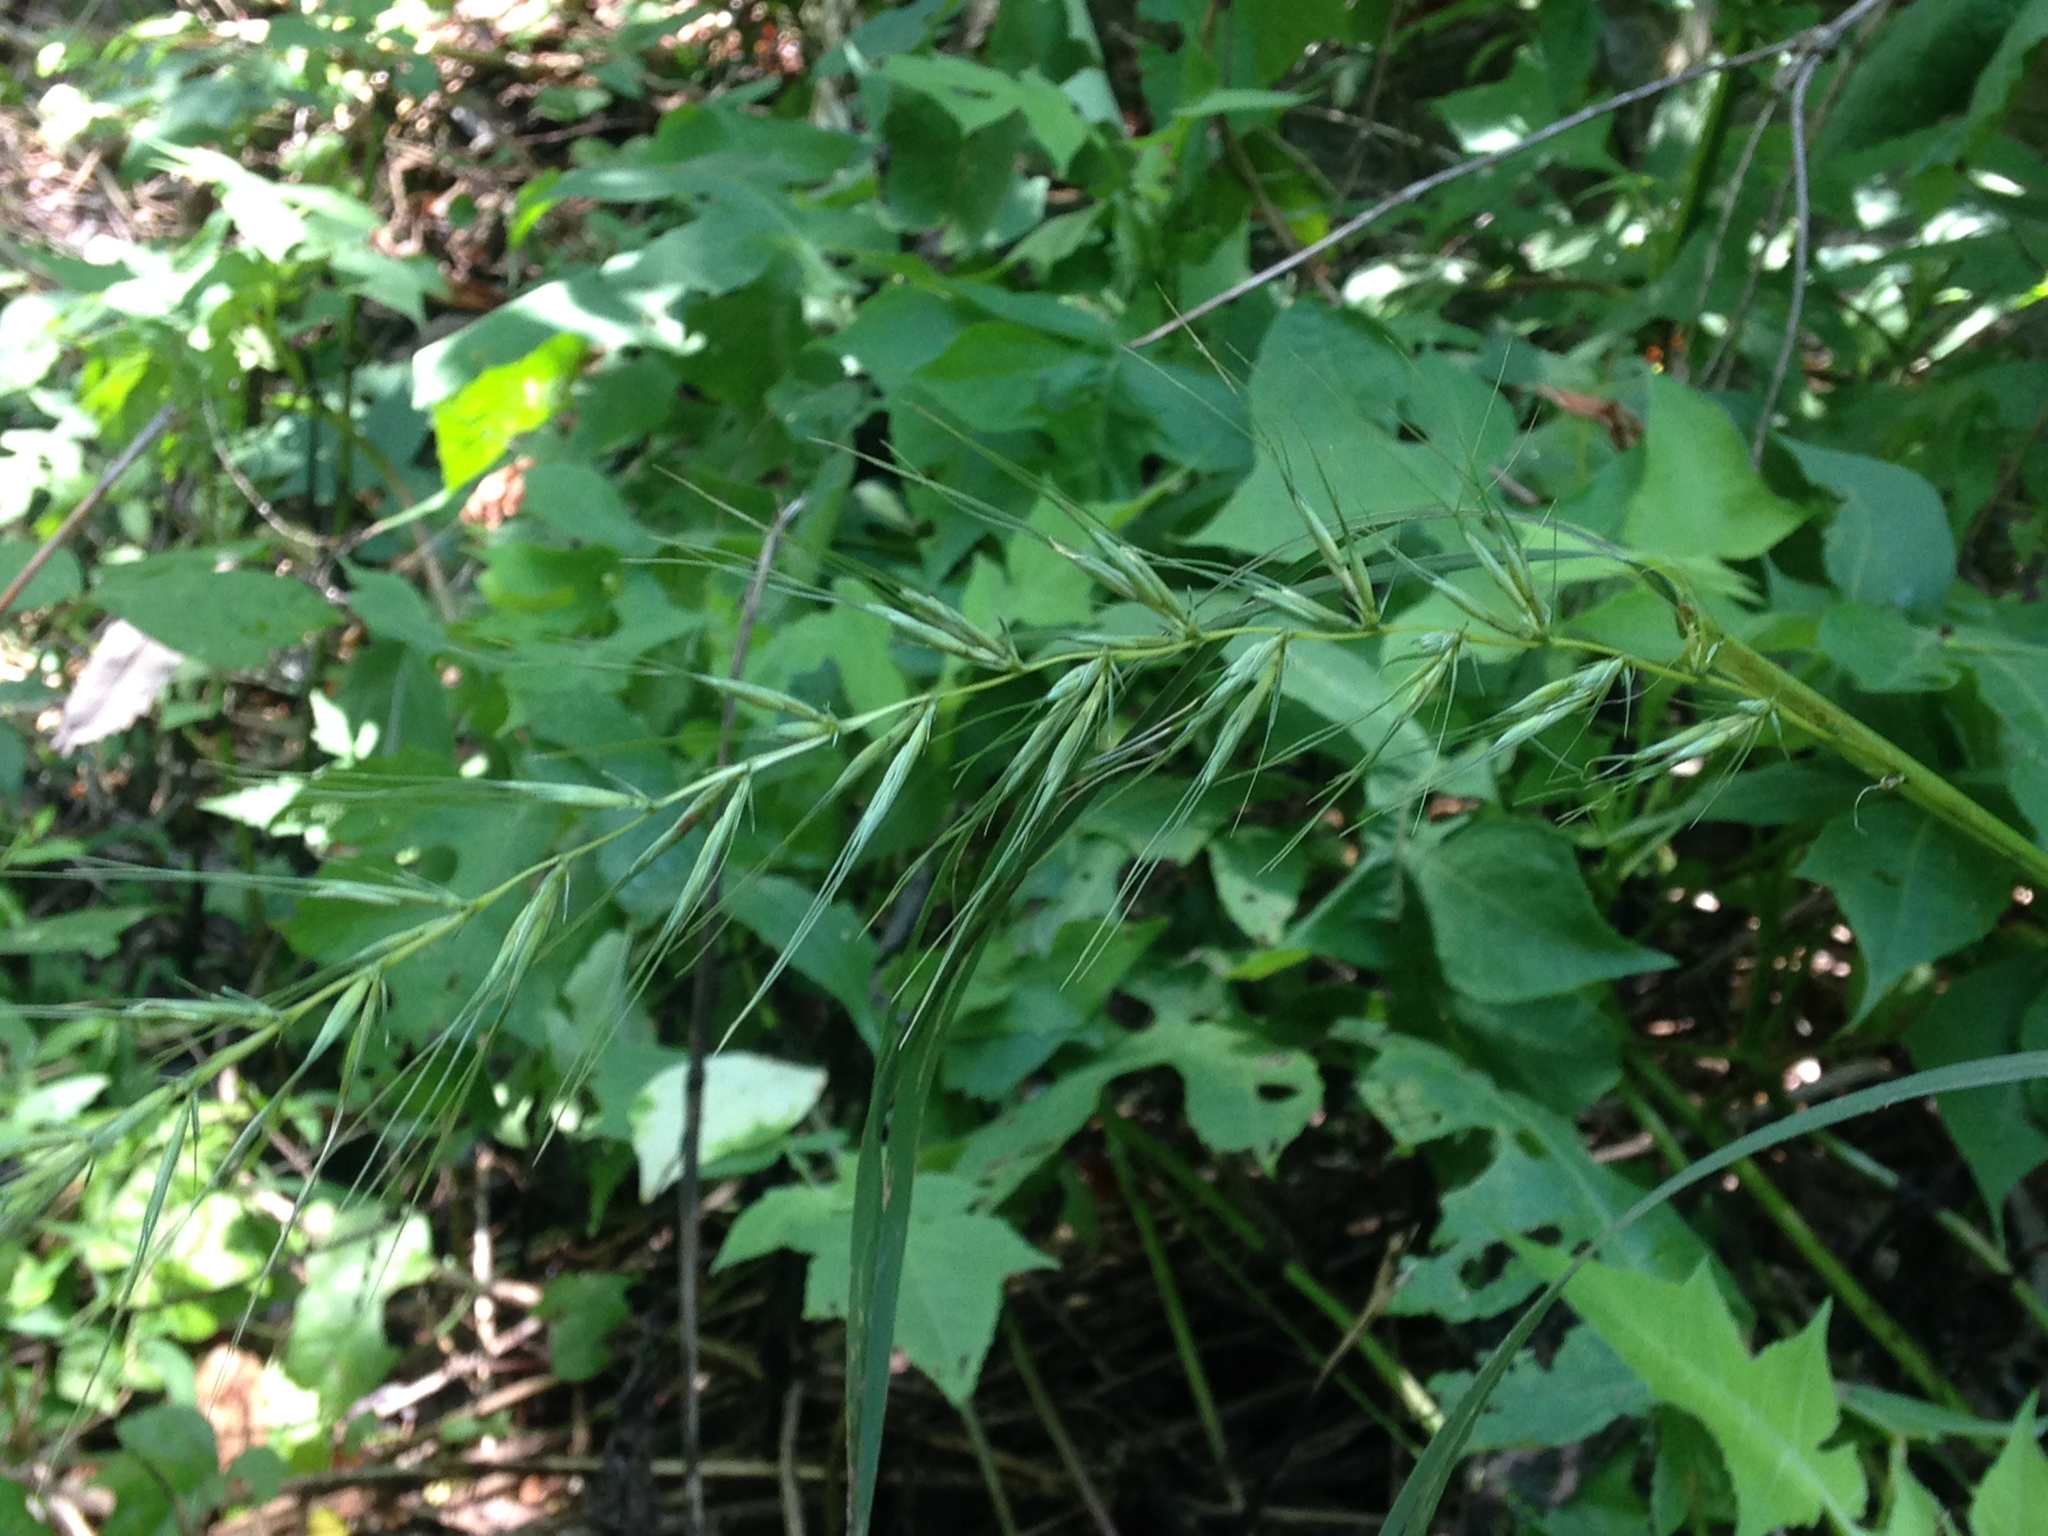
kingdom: Plantae
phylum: Tracheophyta
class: Liliopsida
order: Poales
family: Poaceae
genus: Elymus
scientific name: Elymus svensonii
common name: Svenson's wild rye
